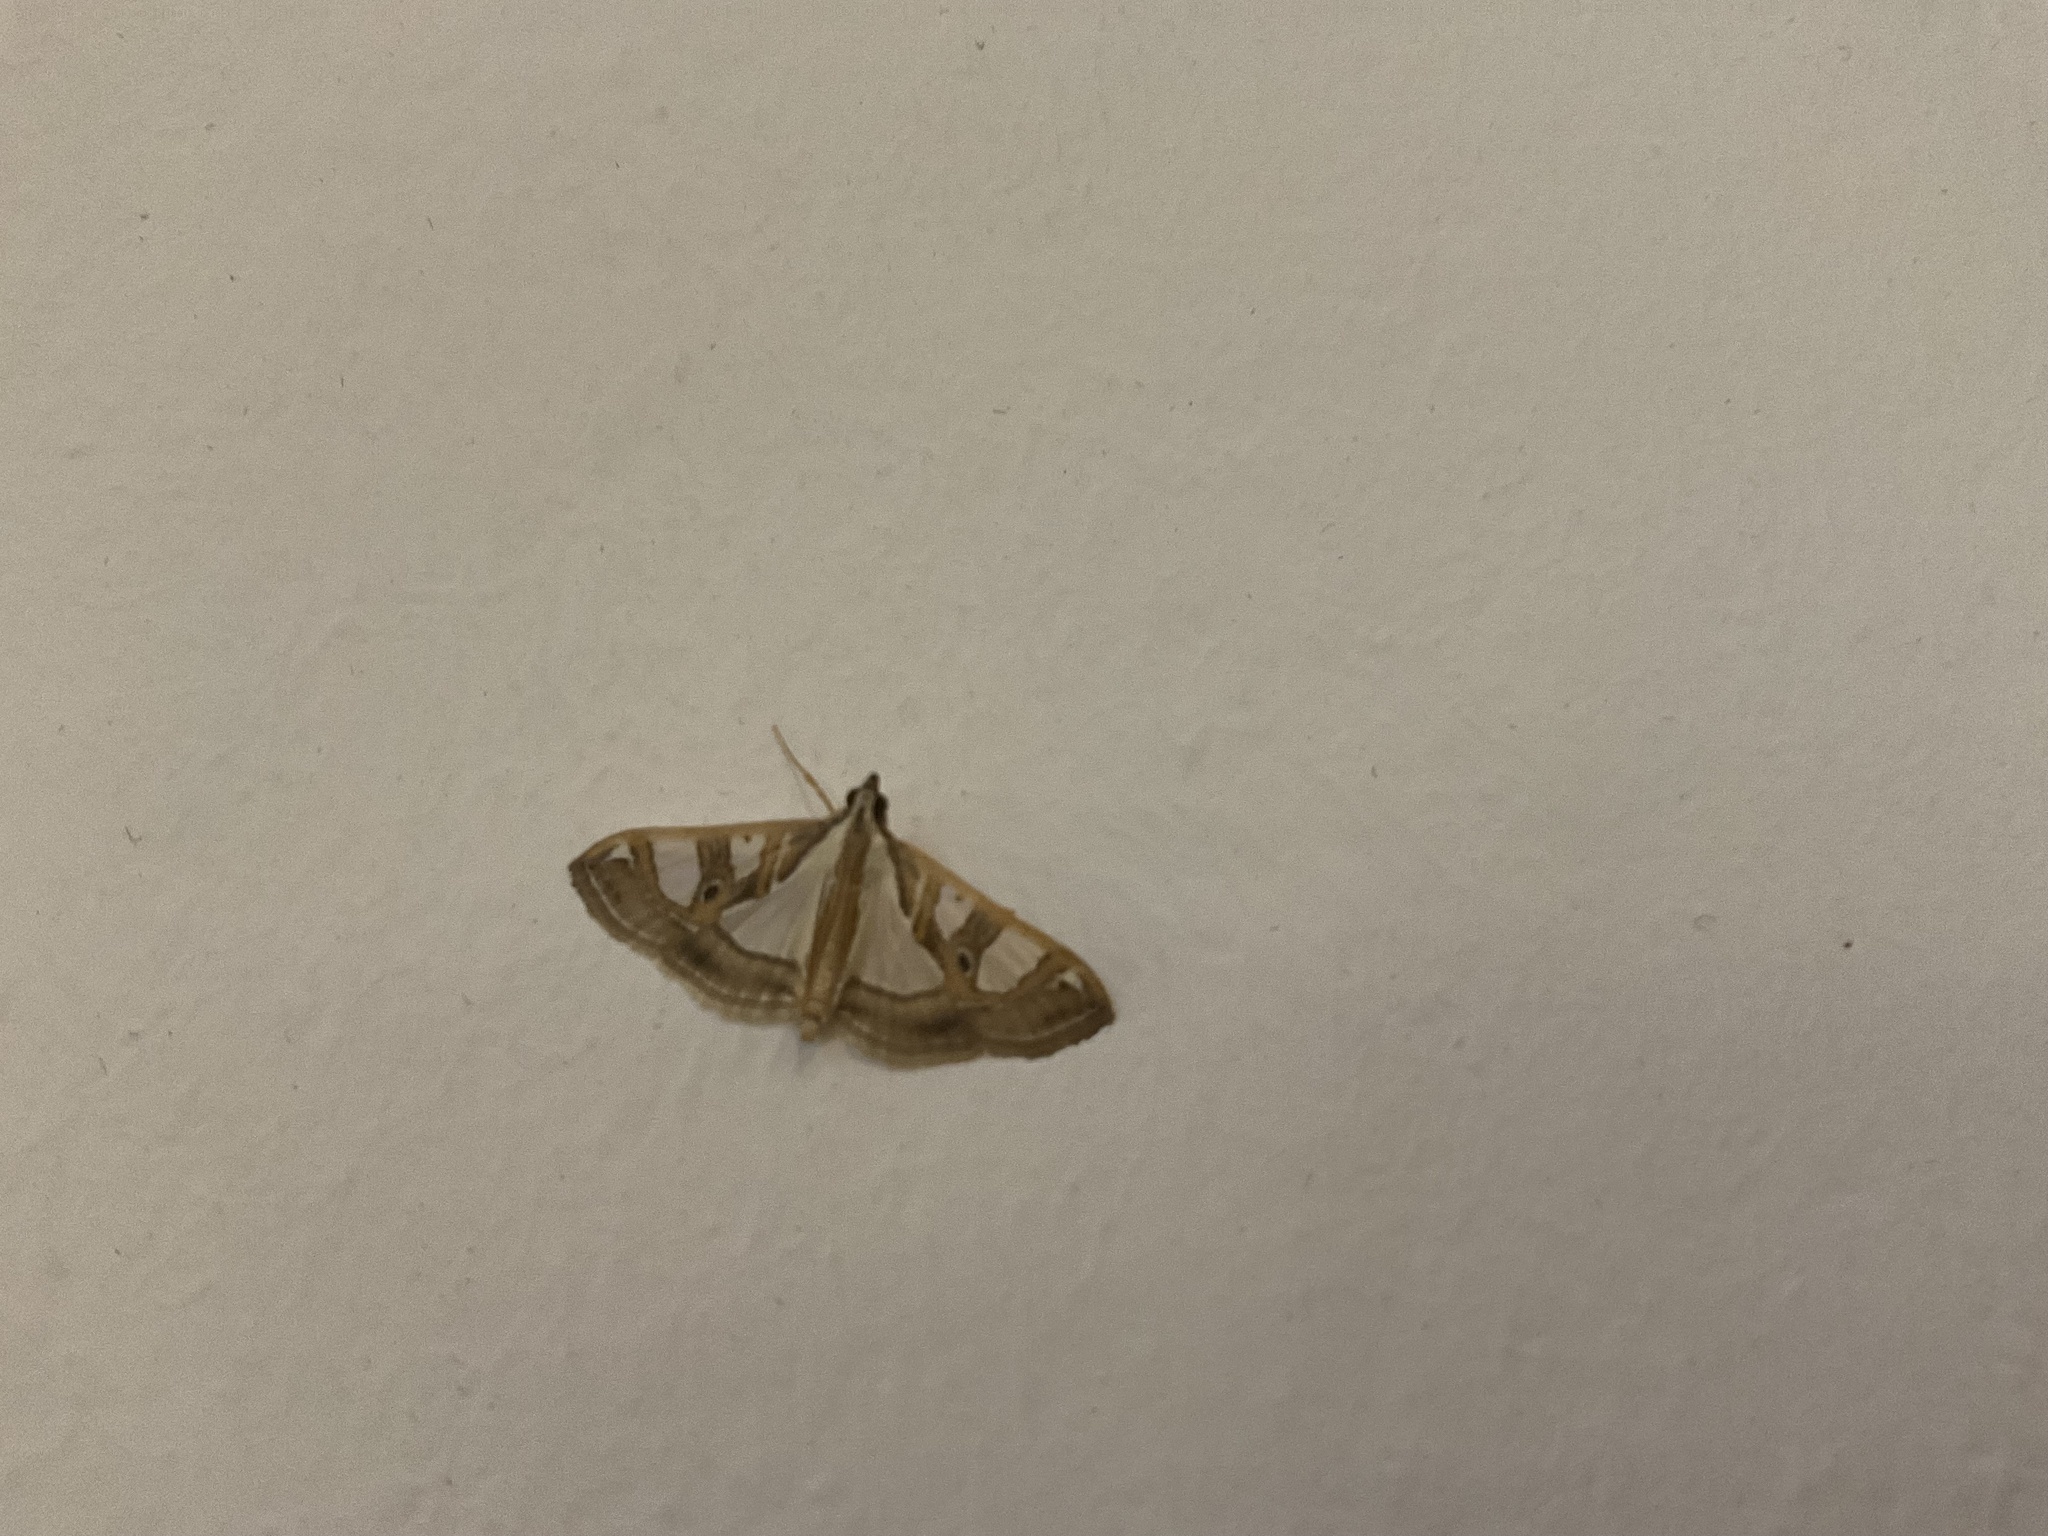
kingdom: Animalia
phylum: Arthropoda
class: Insecta
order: Lepidoptera
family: Crambidae
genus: Glyphodes
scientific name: Glyphodes pyloalis
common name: Lesser mulberry snout moth
